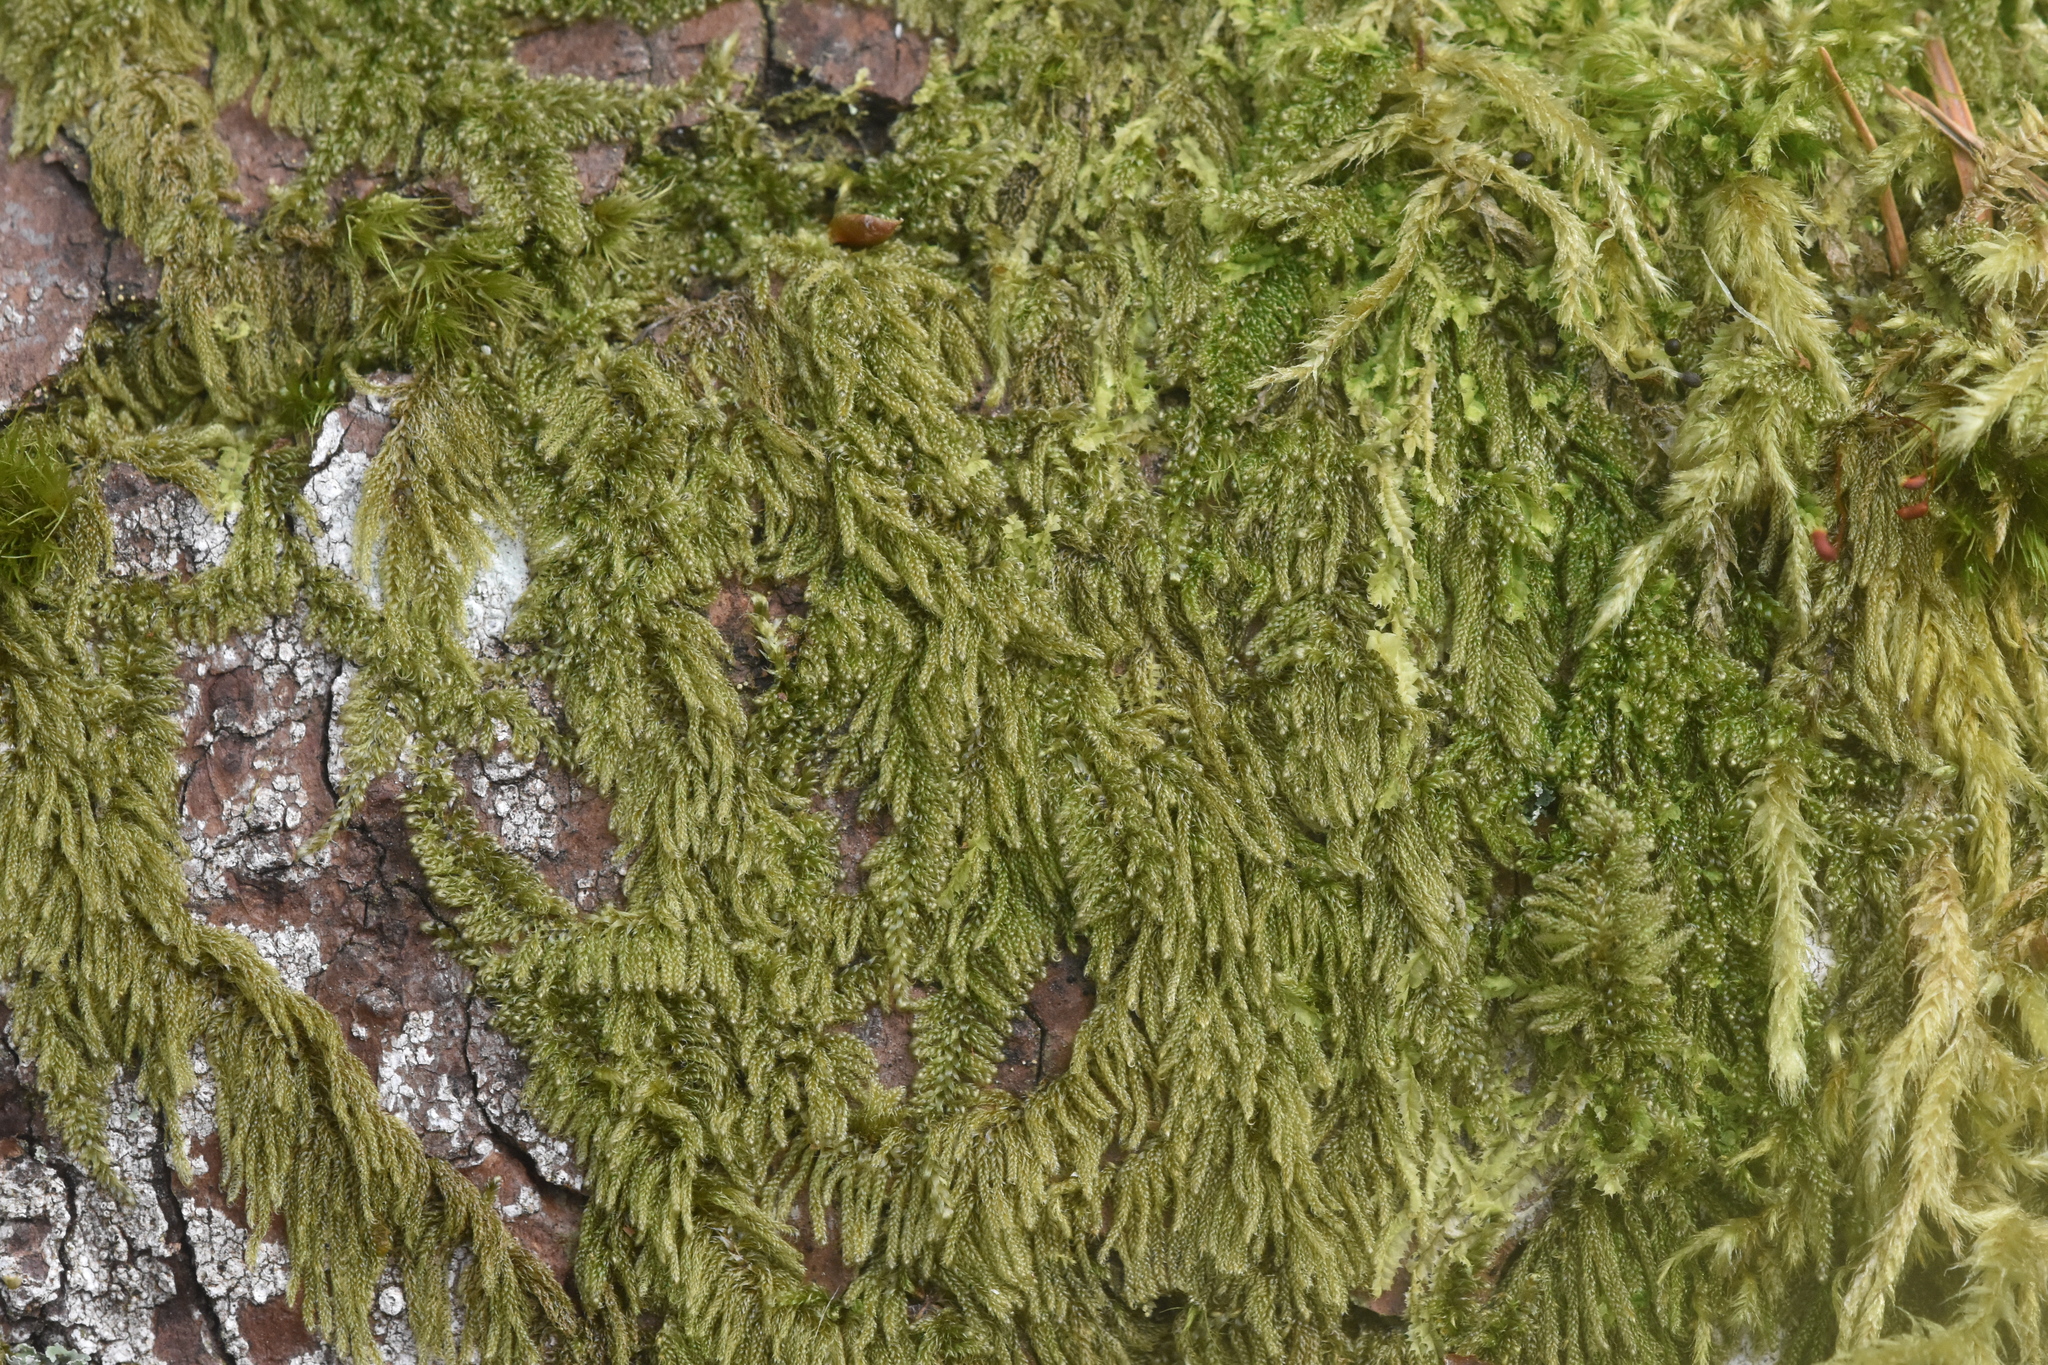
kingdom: Plantae
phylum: Bryophyta
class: Bryopsida
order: Hypnales
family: Pylaisiadelphaceae
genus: Trochophyllohypnum
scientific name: Trochophyllohypnum circinale
